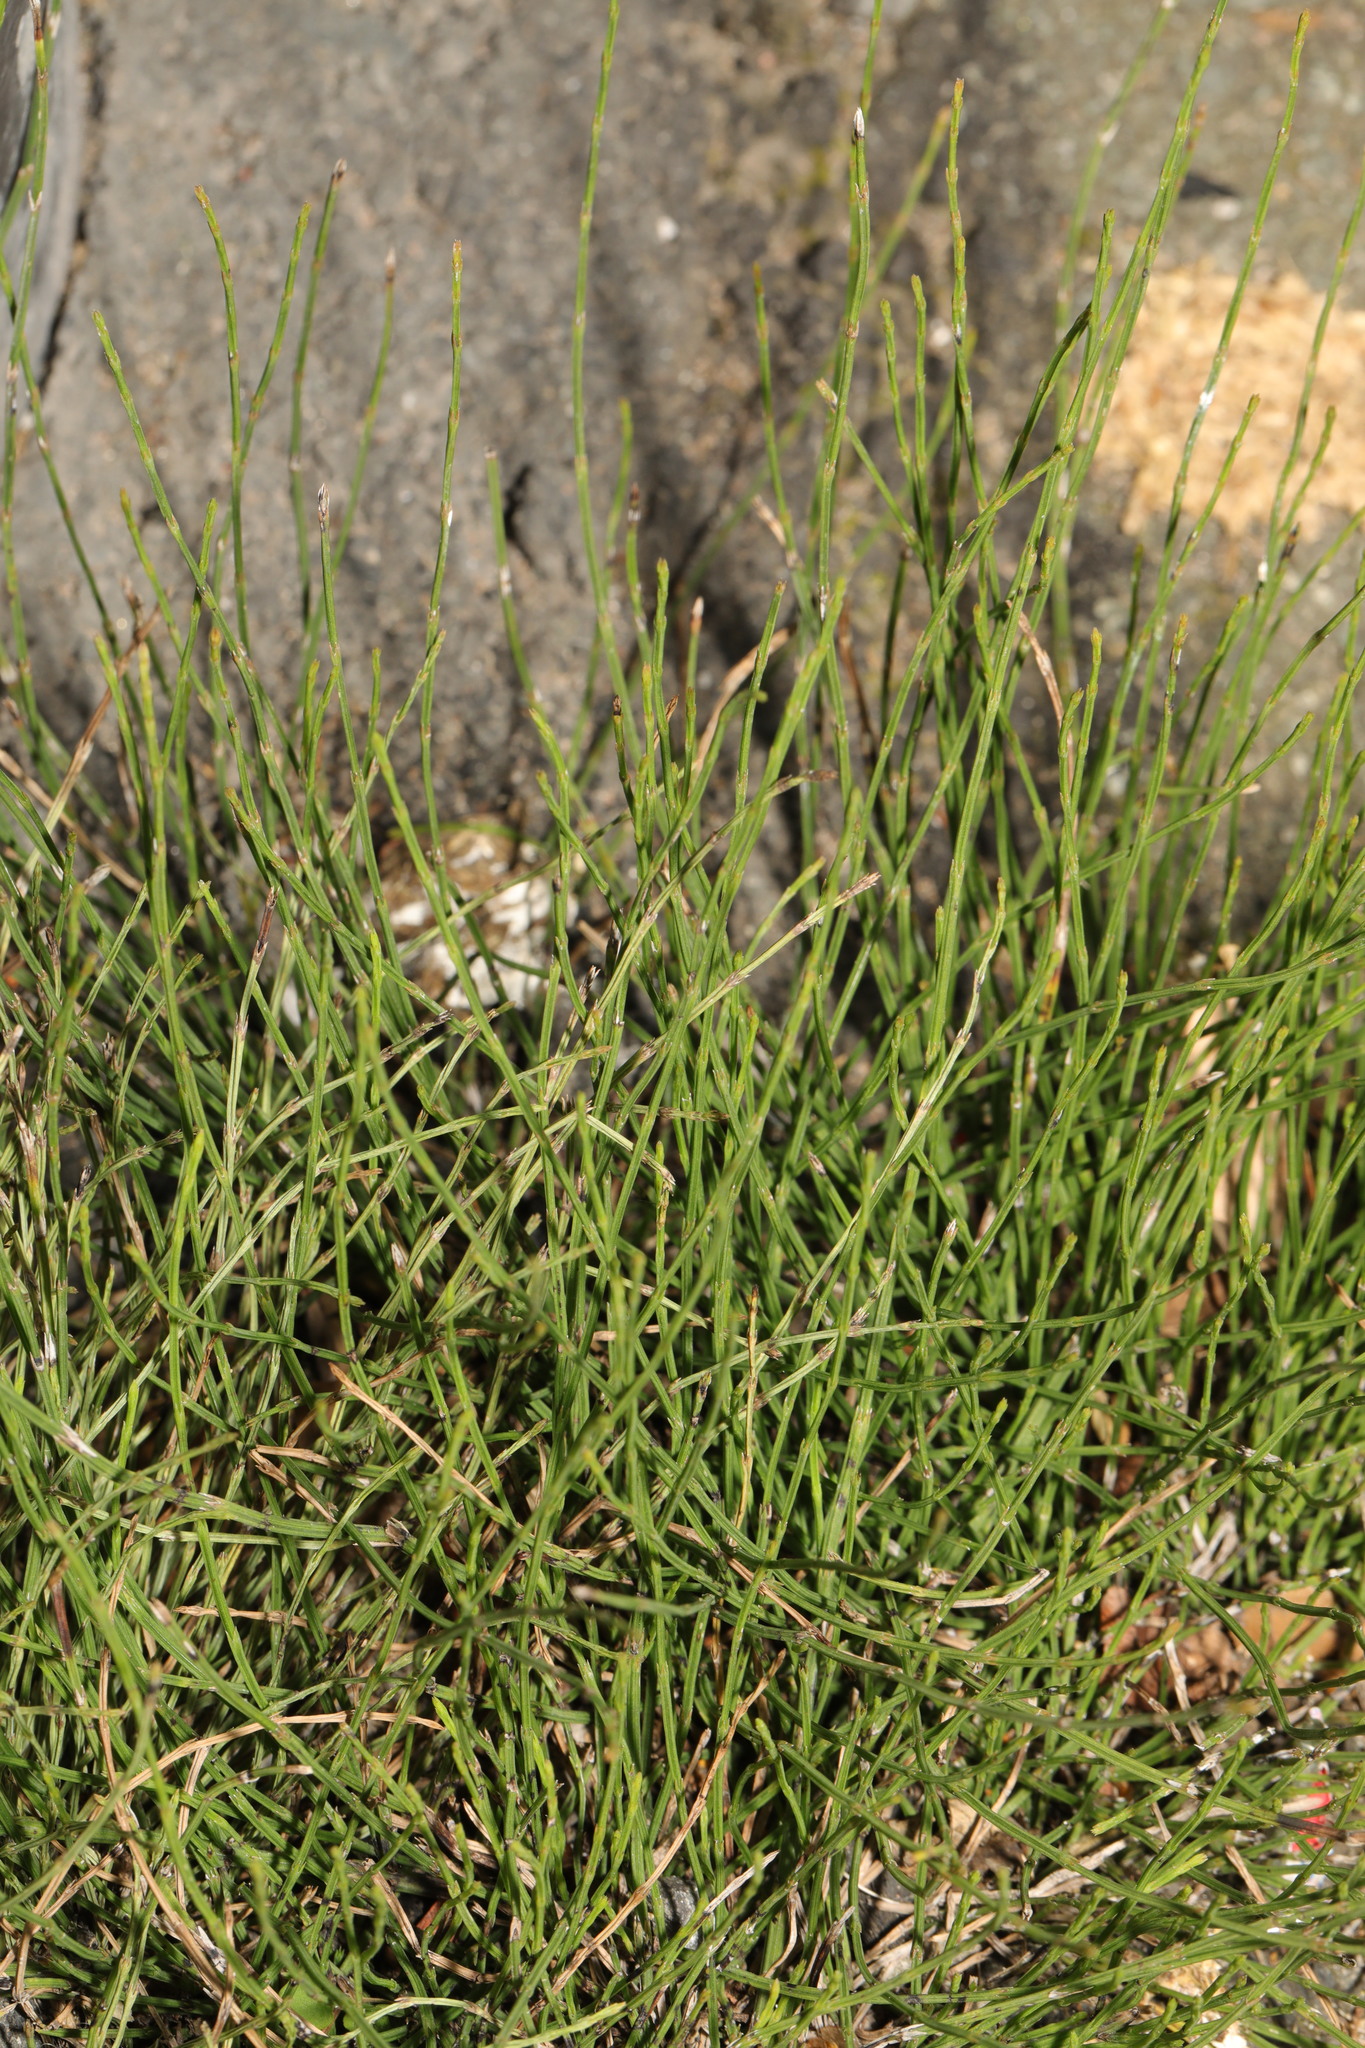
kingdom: Plantae
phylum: Tracheophyta
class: Polypodiopsida
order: Equisetales
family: Equisetaceae
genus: Equisetum
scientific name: Equisetum arvense
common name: Field horsetail
